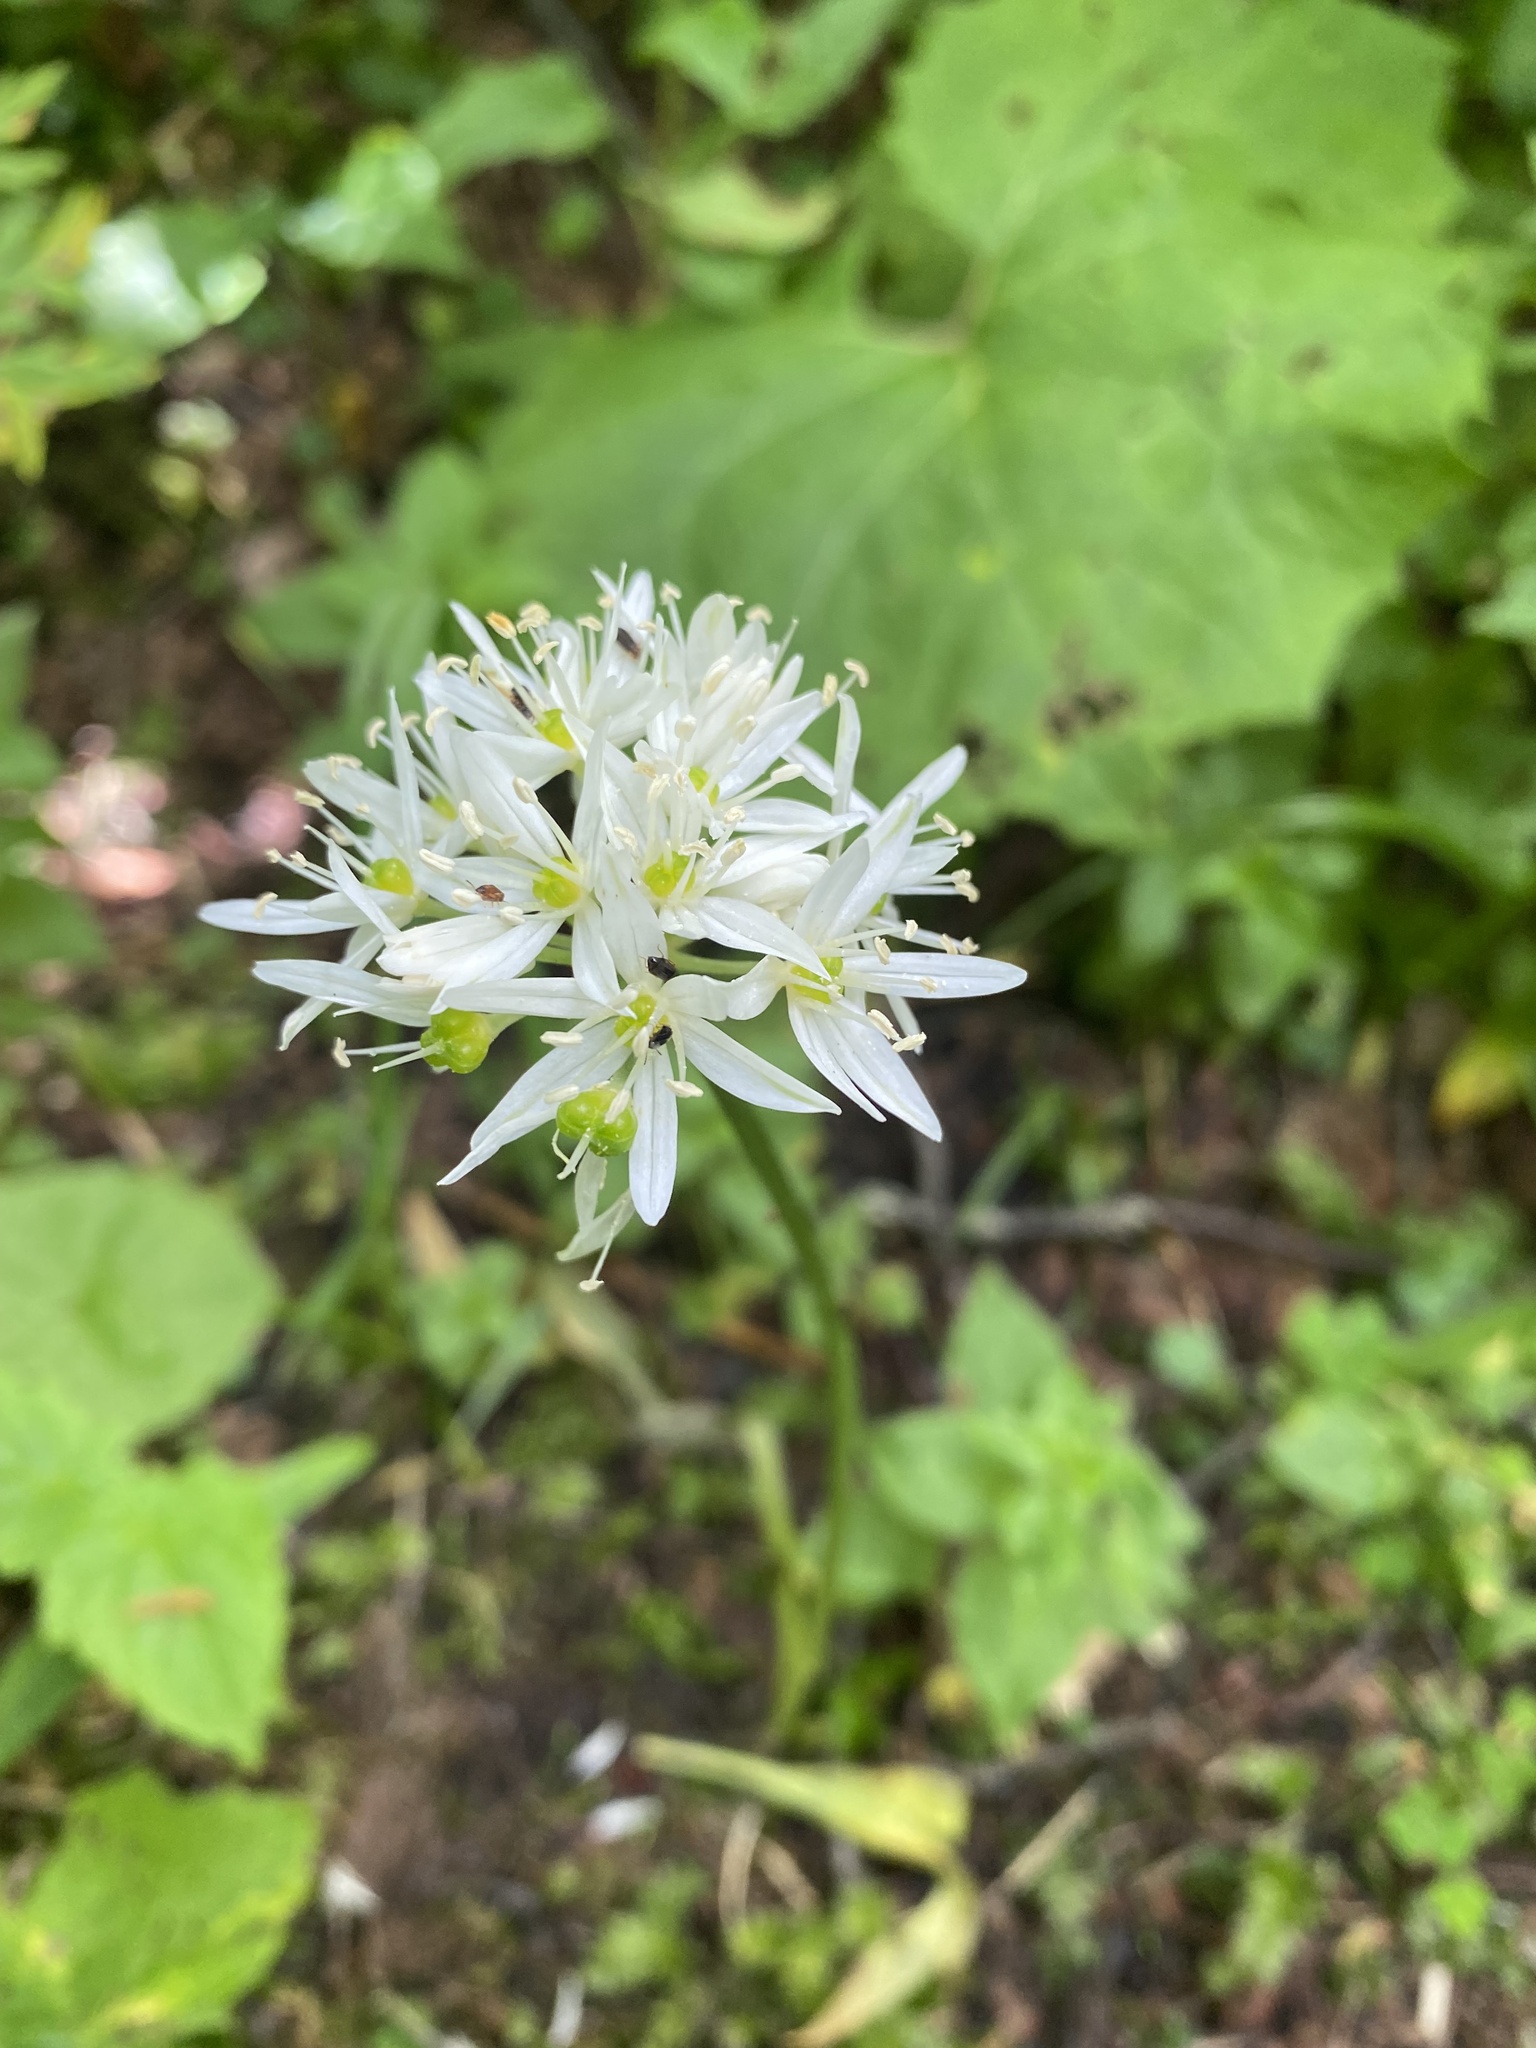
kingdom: Plantae
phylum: Tracheophyta
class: Liliopsida
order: Asparagales
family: Amaryllidaceae
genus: Allium
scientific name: Allium ursinum
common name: Ramsons
